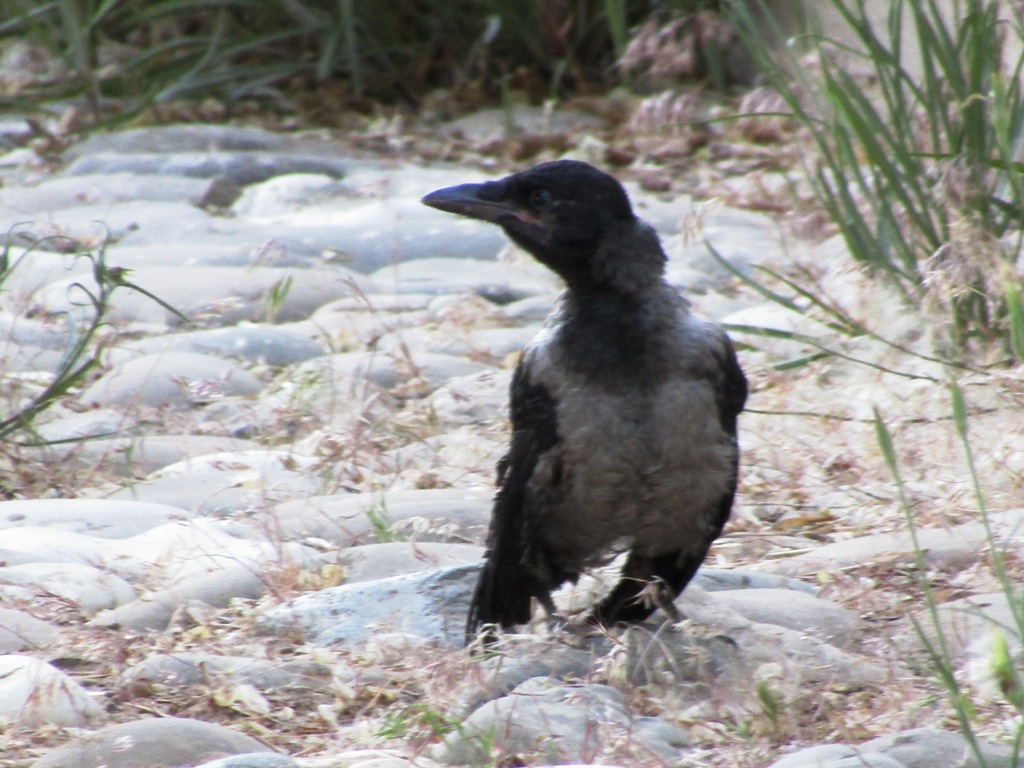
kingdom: Animalia
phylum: Chordata
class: Aves
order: Passeriformes
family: Corvidae
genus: Corvus
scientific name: Corvus cornix
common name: Hooded crow
